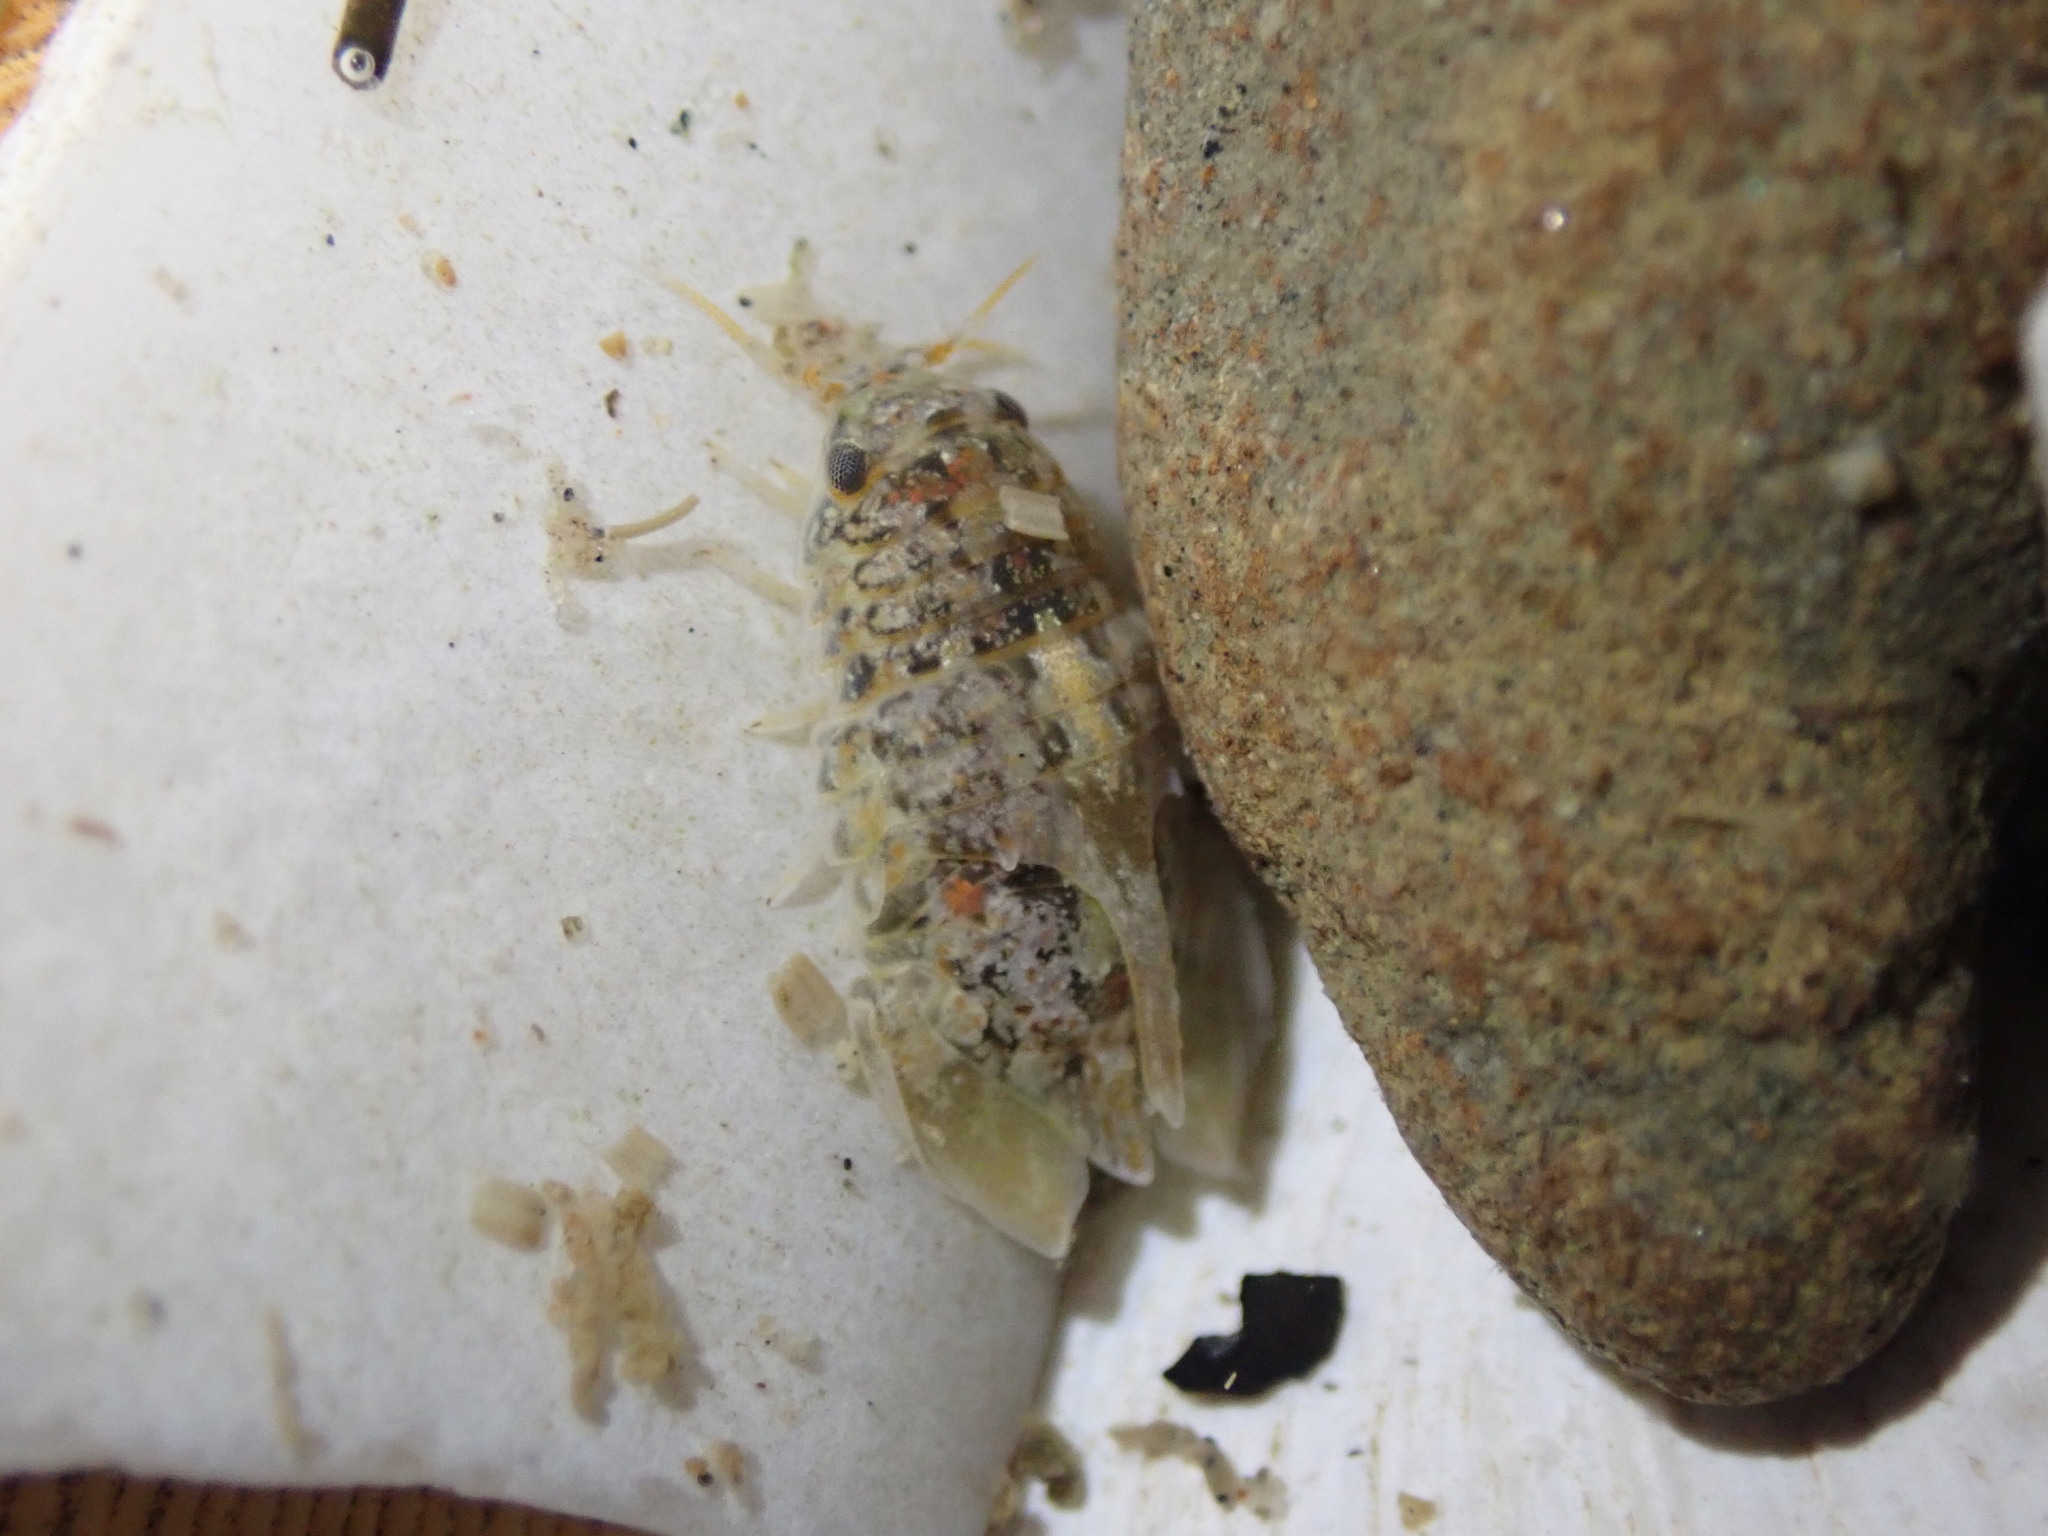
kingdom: Animalia
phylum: Arthropoda
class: Malacostraca
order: Isopoda
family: Sphaeromatidae
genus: Isocladus
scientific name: Isocladus armatus
